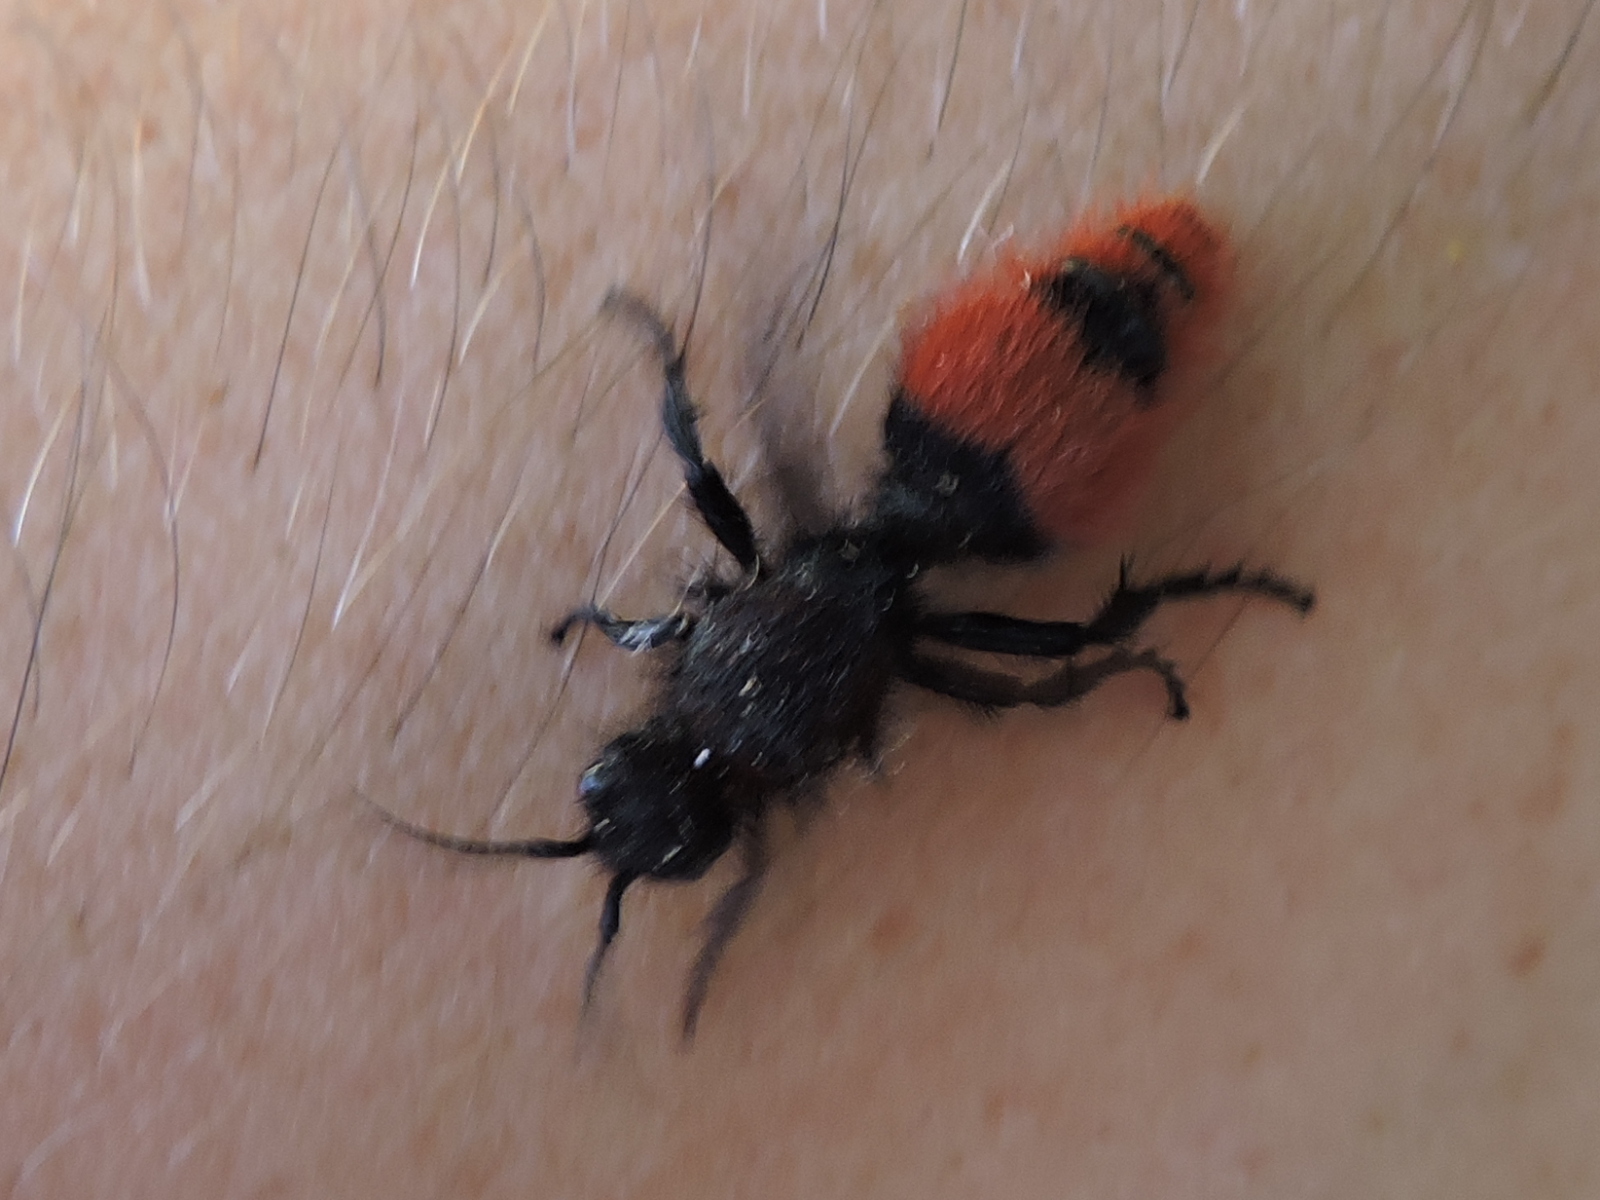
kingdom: Animalia
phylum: Arthropoda
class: Insecta
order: Hymenoptera
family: Mutillidae
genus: Dasymutilla
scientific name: Dasymutilla
